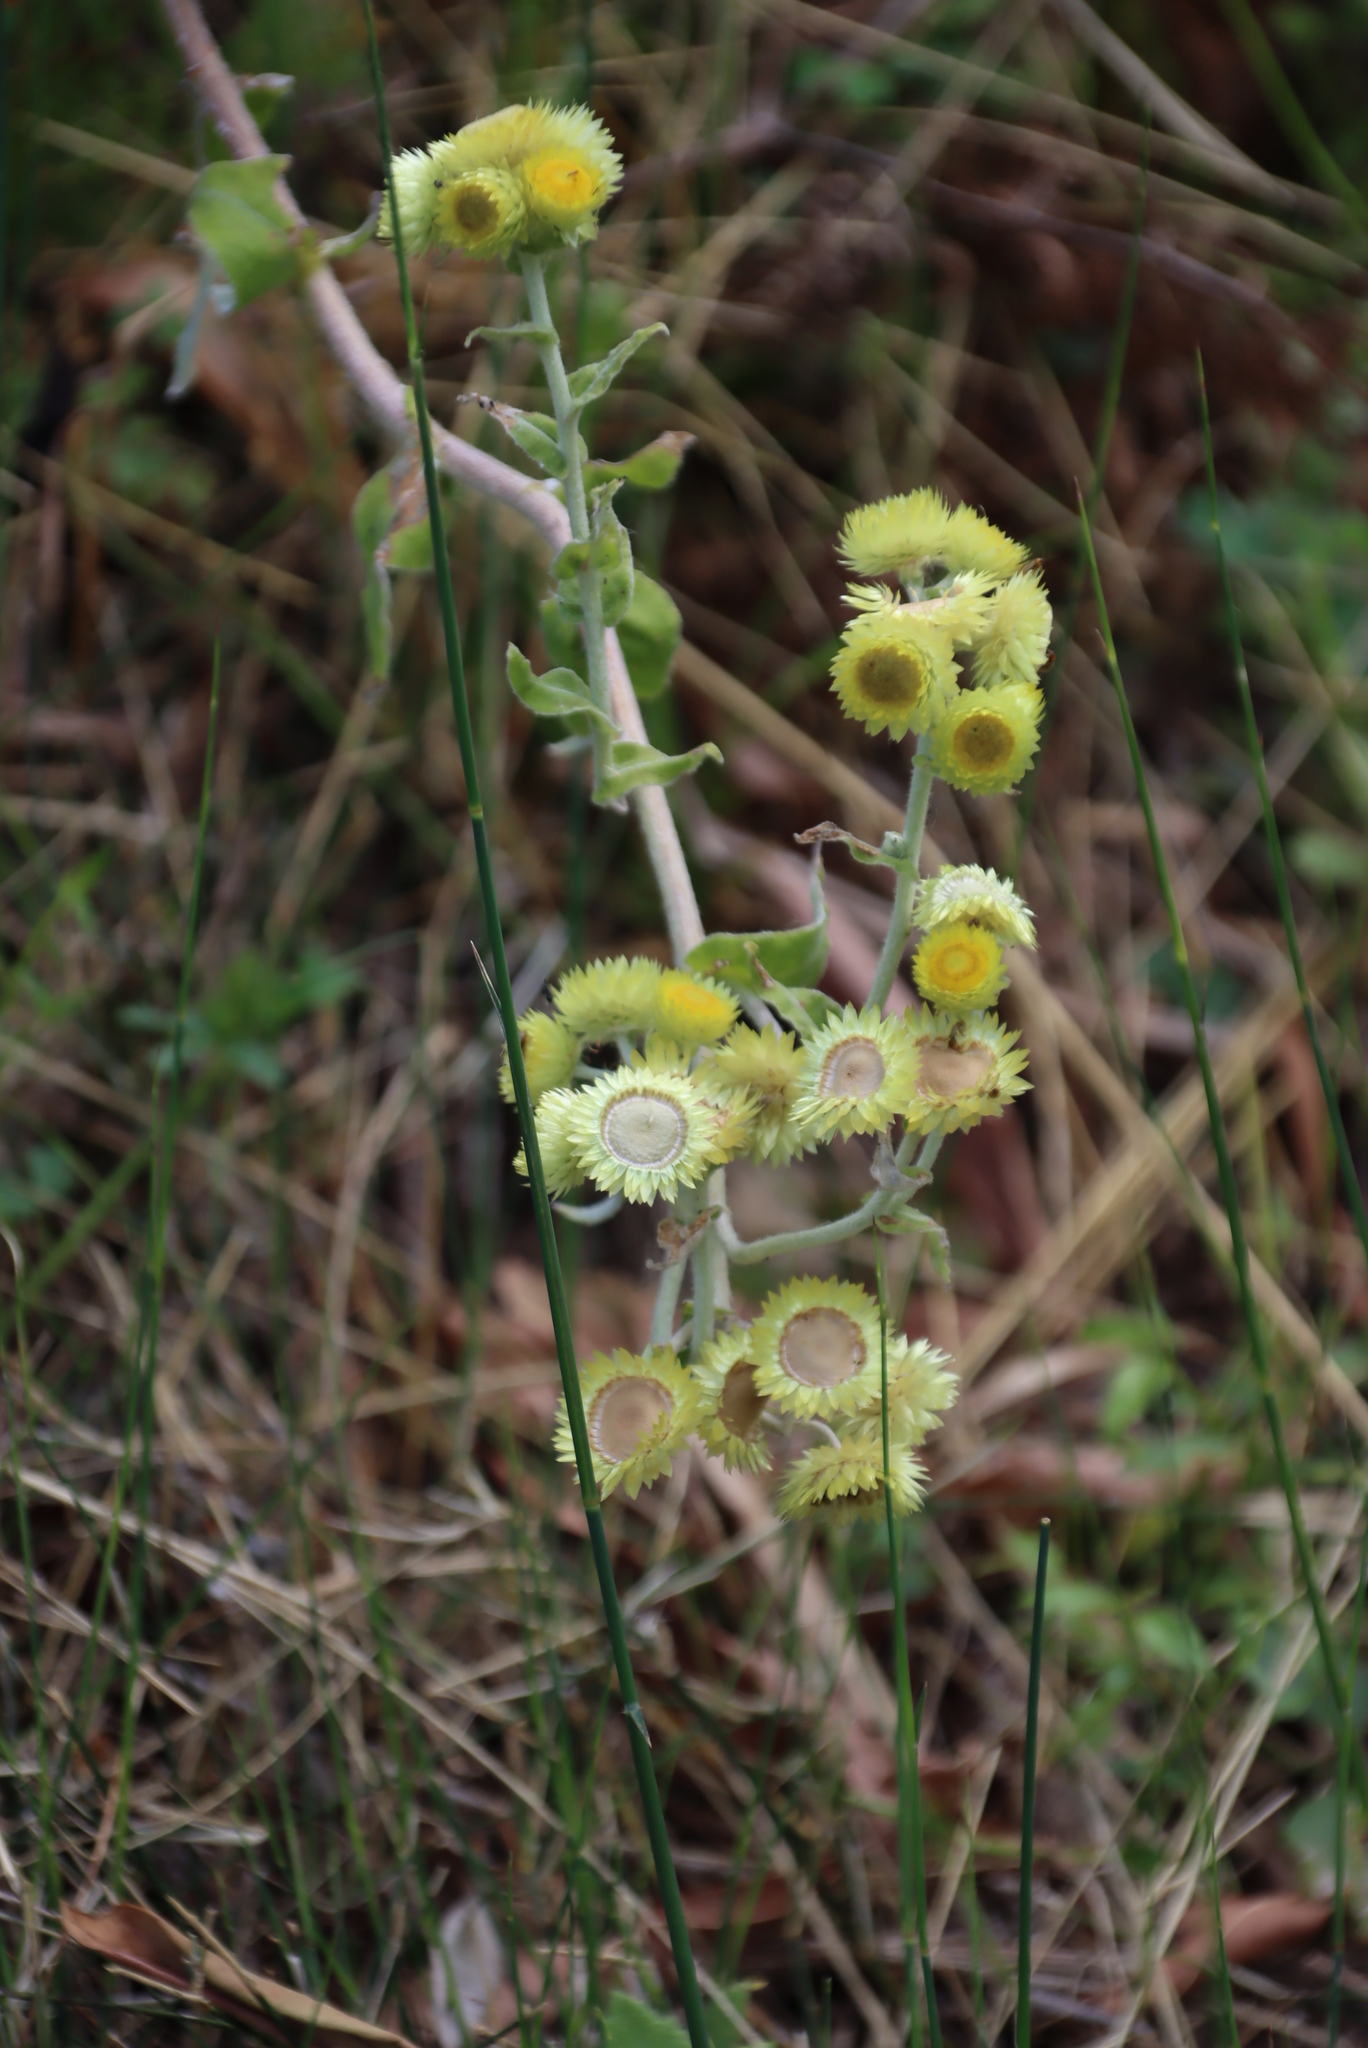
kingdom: Plantae
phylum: Tracheophyta
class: Magnoliopsida
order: Asterales
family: Asteraceae
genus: Helichrysum
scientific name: Helichrysum foetidum
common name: Stinking everlasting
